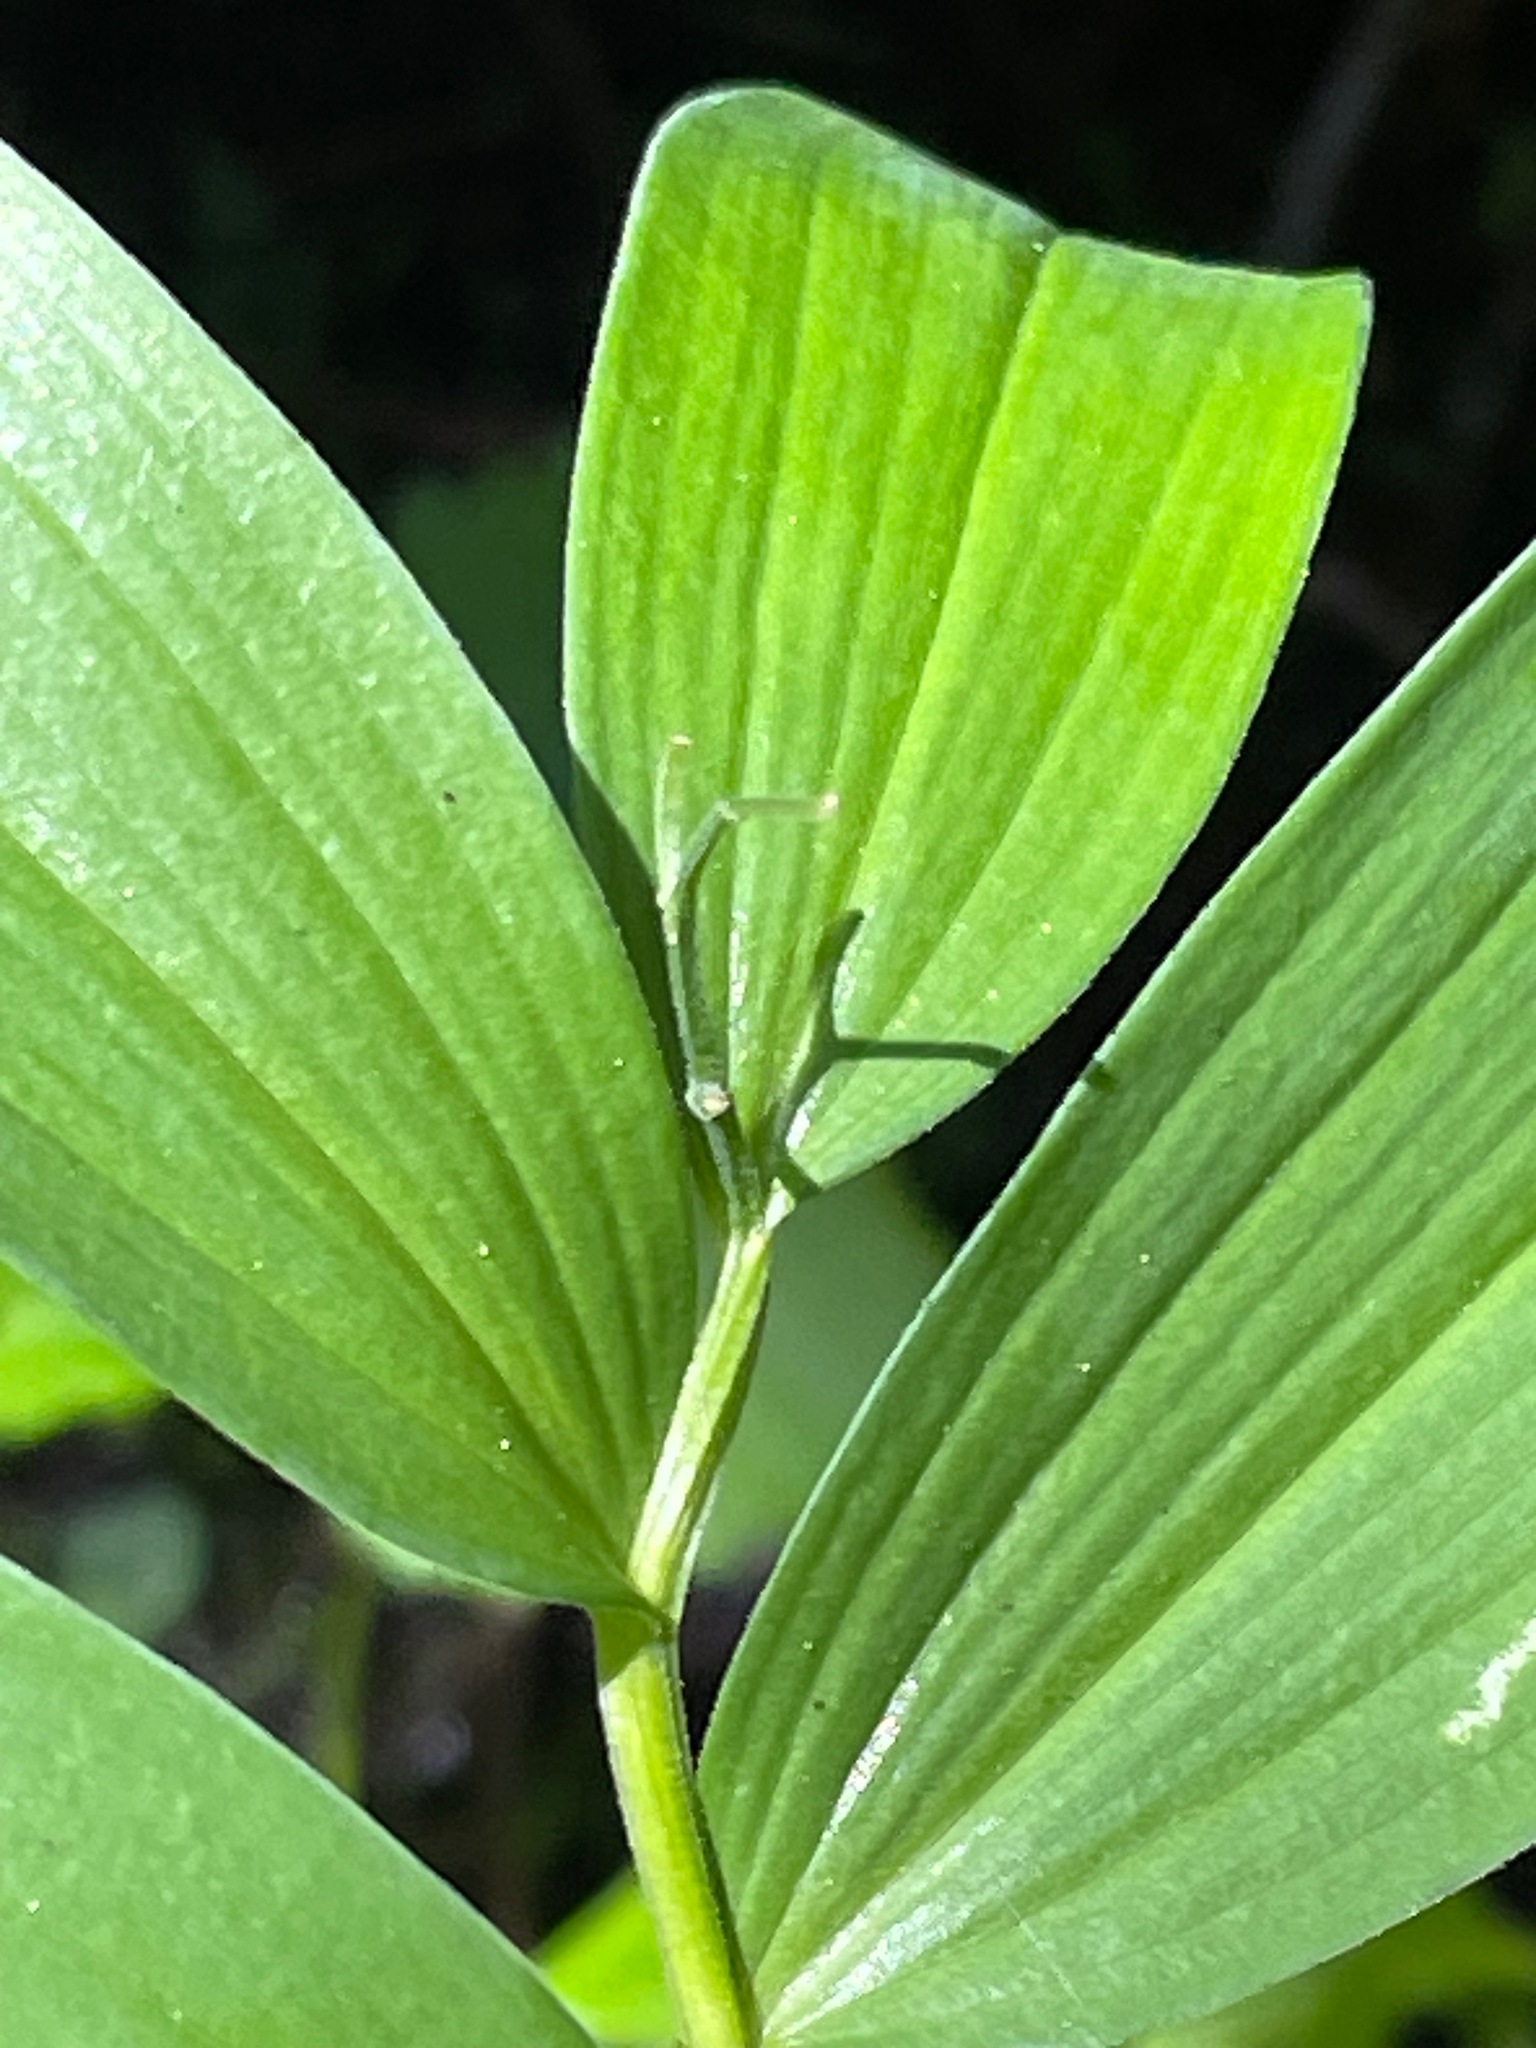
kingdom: Plantae
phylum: Tracheophyta
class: Liliopsida
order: Asparagales
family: Asparagaceae
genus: Maianthemum
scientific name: Maianthemum stellatum
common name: Little false solomon's seal
